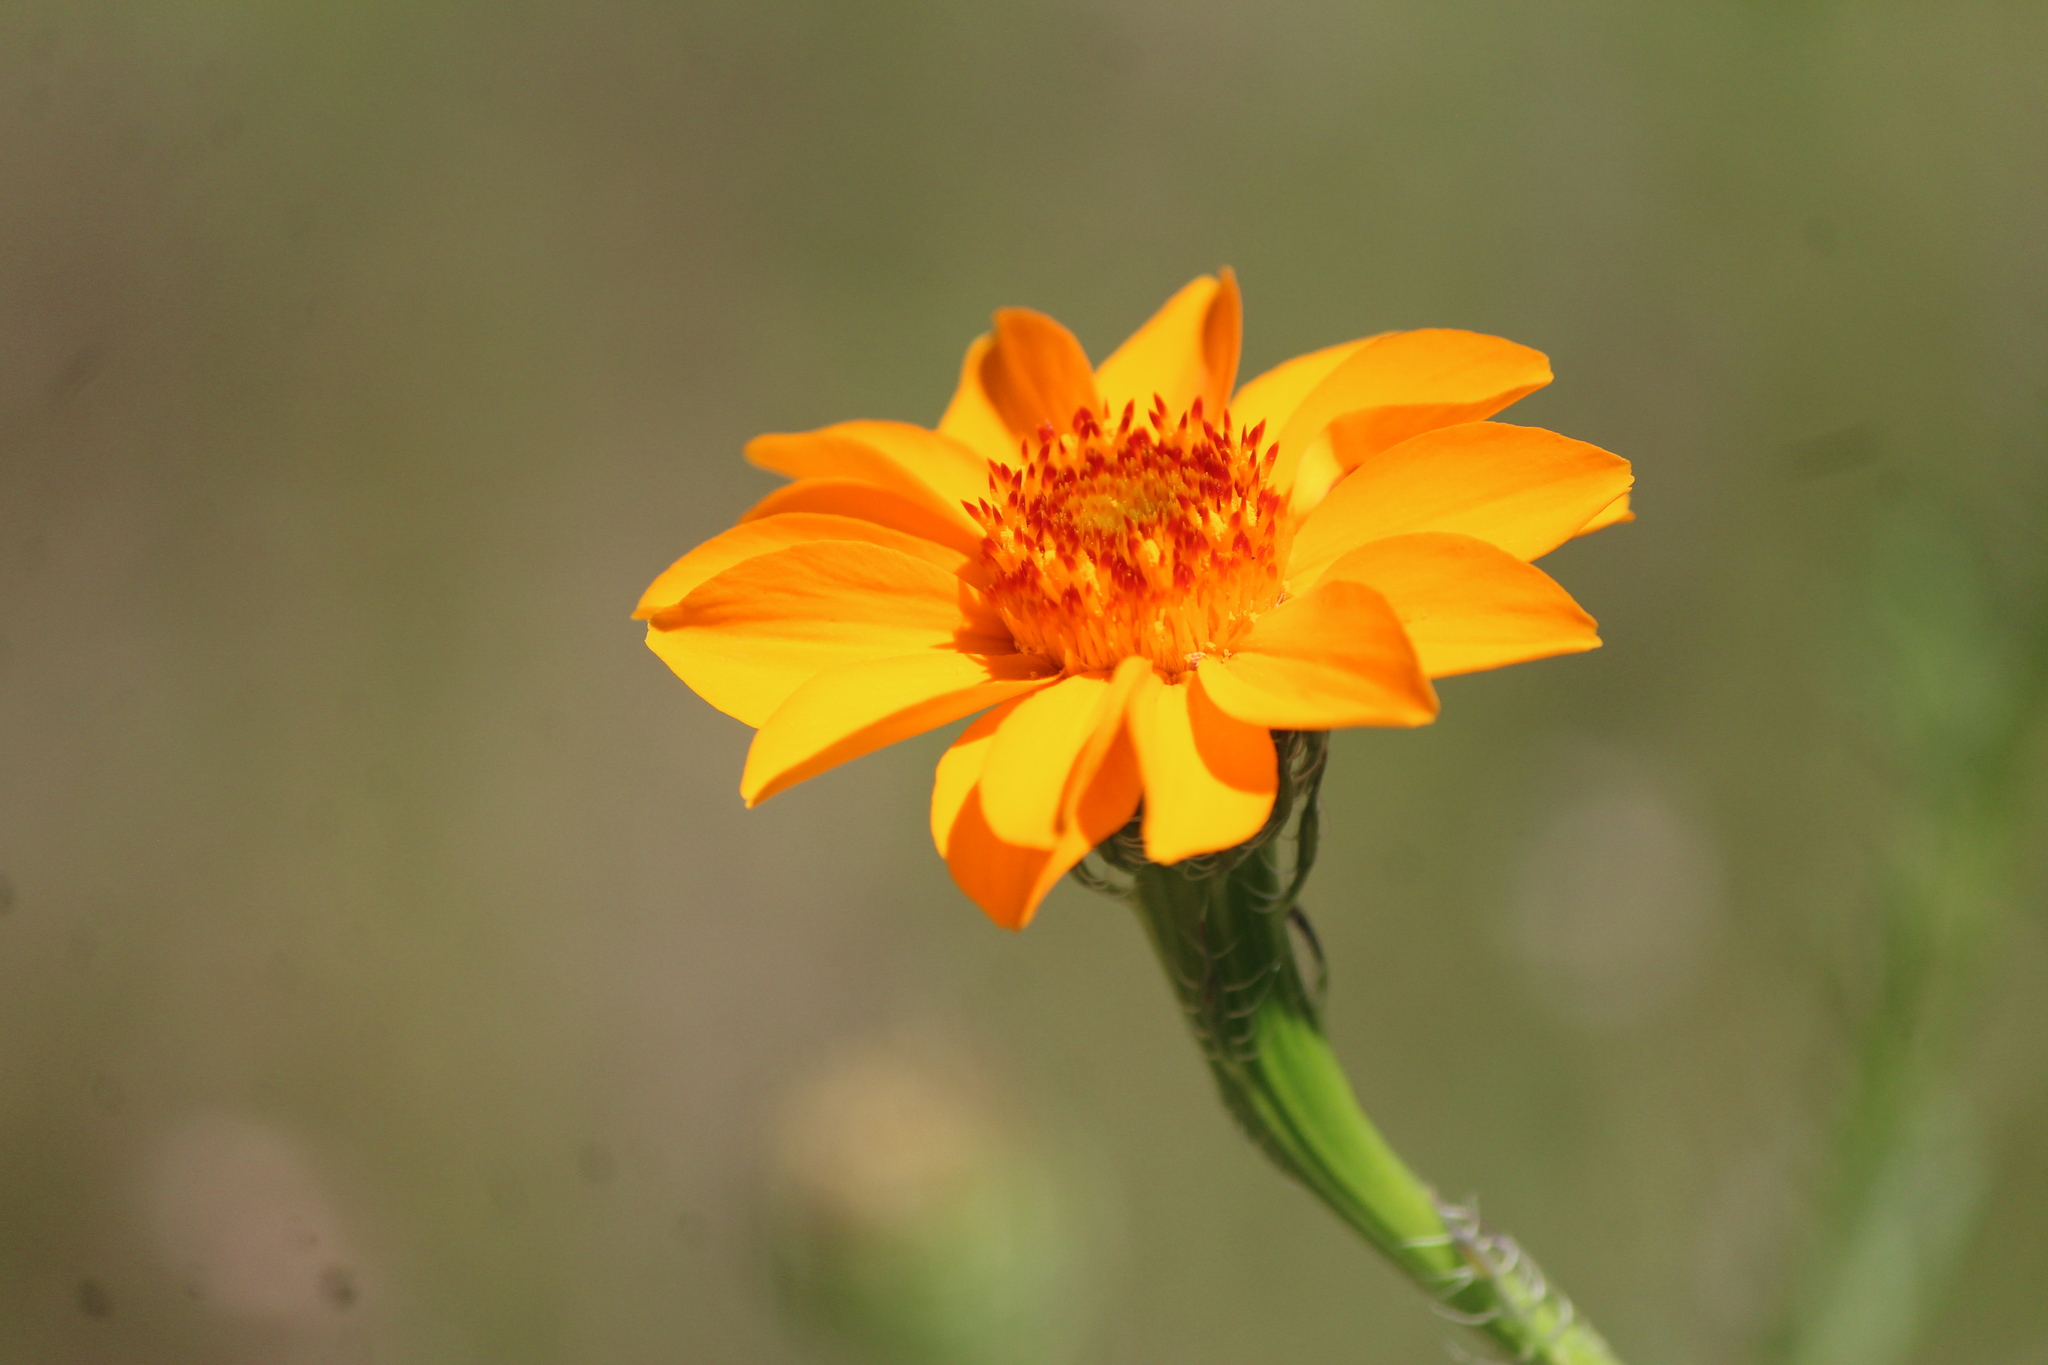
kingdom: Plantae
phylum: Tracheophyta
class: Magnoliopsida
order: Asterales
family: Asteraceae
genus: Adenophyllum
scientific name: Adenophyllum cancellatum
